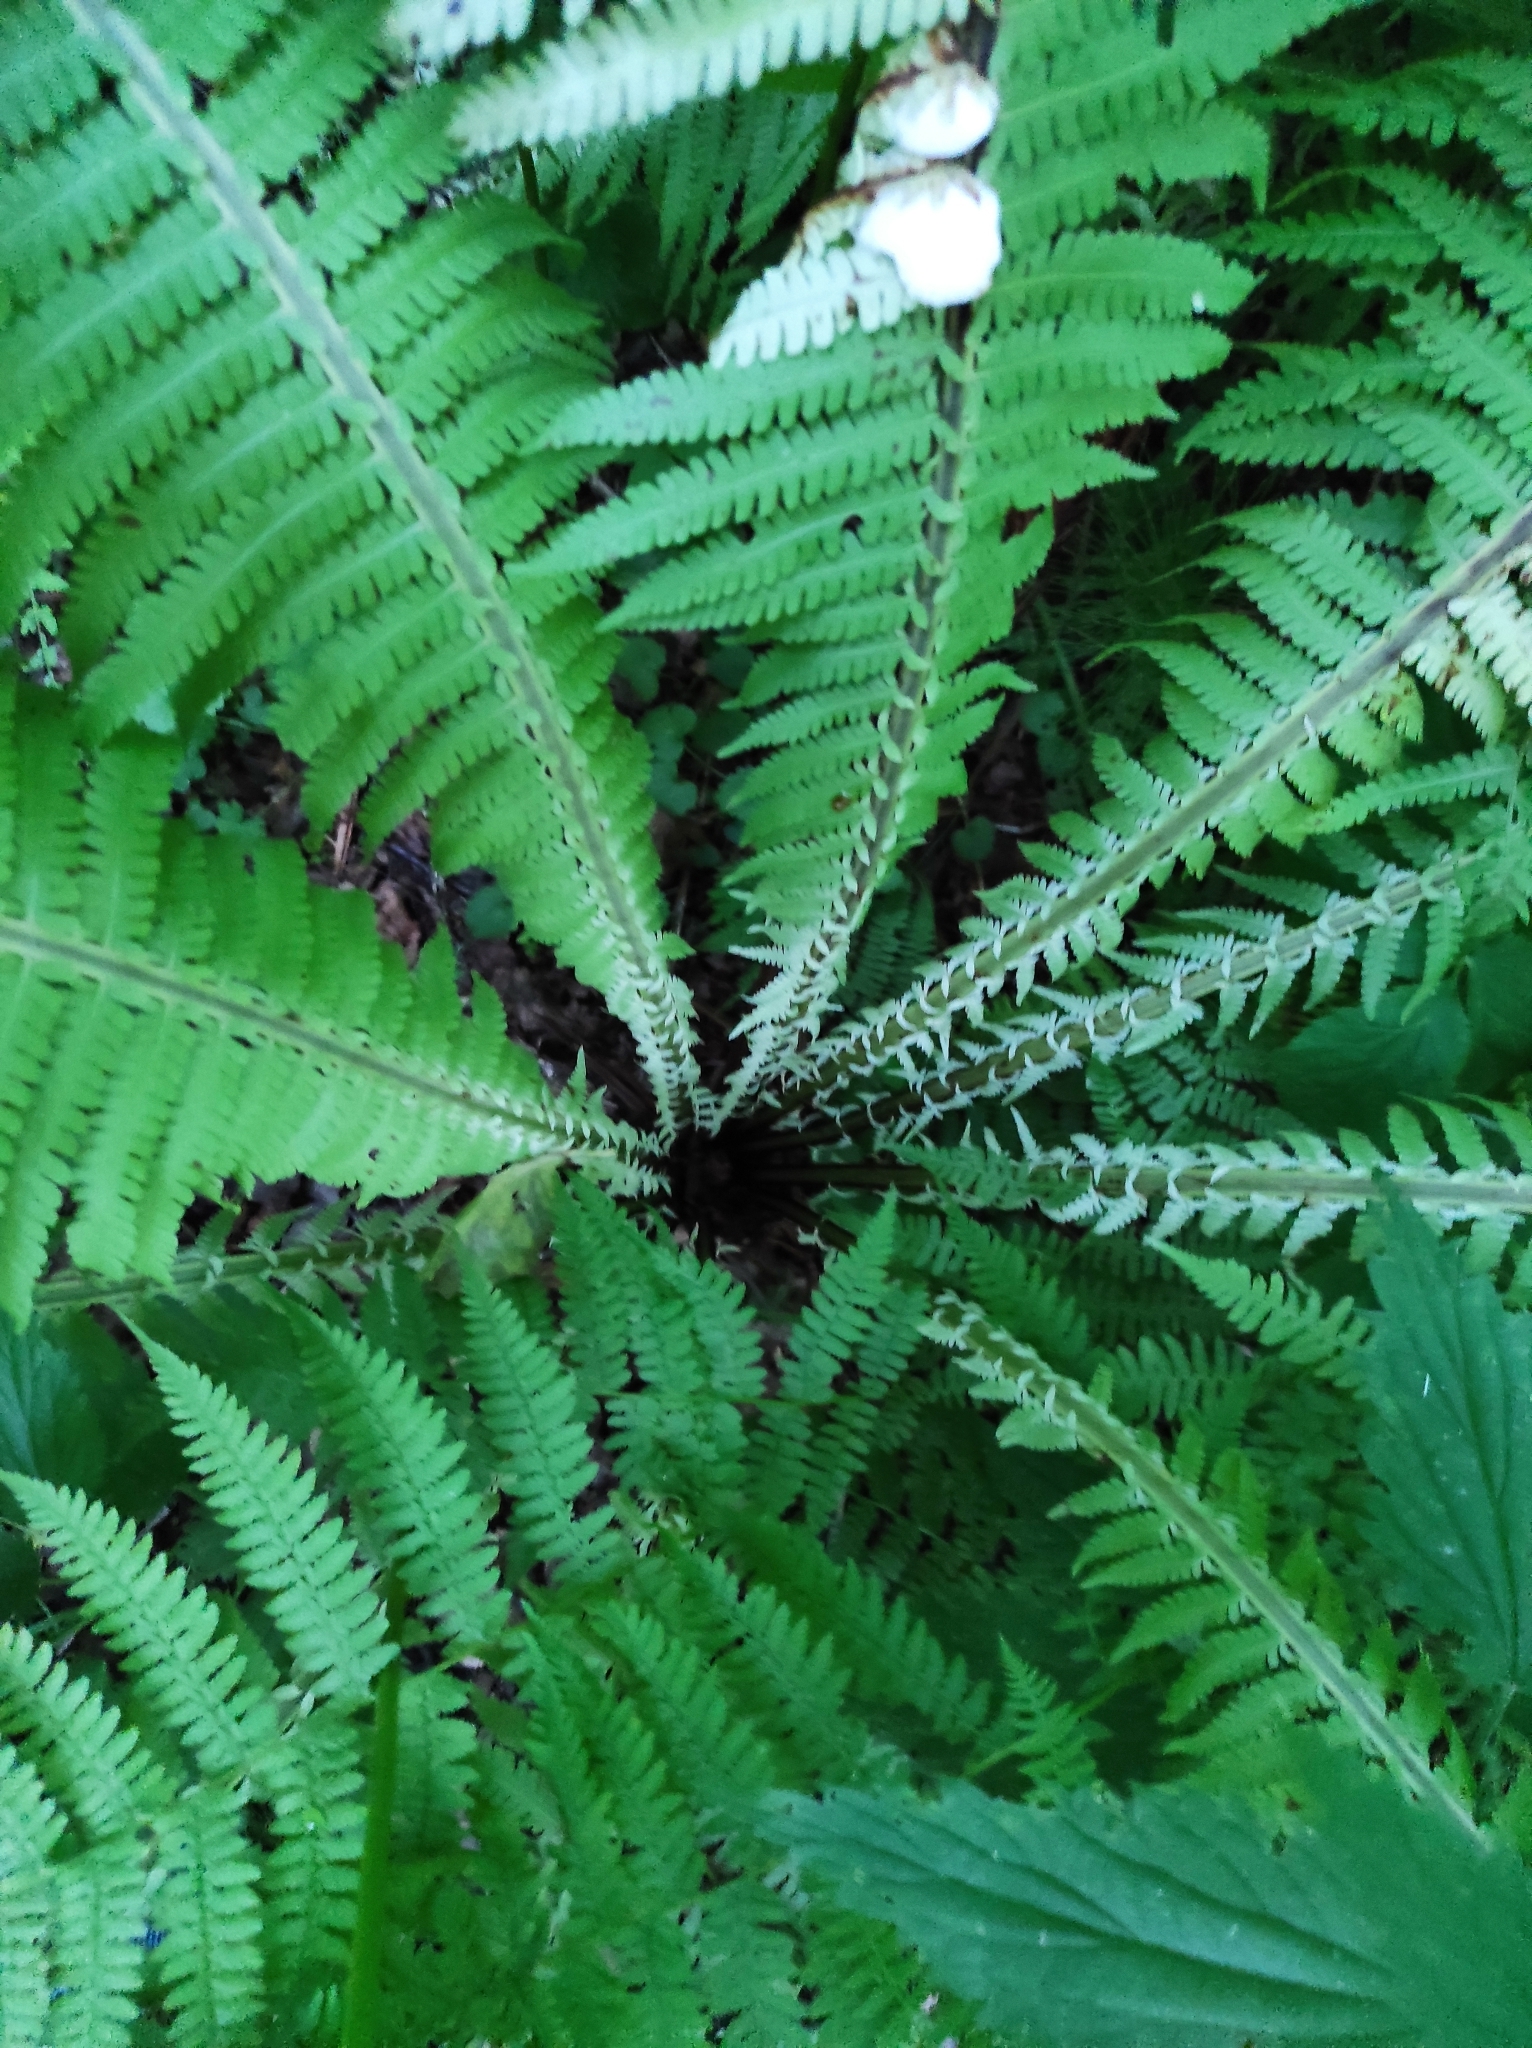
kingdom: Plantae
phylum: Tracheophyta
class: Polypodiopsida
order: Polypodiales
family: Onocleaceae
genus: Matteuccia
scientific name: Matteuccia struthiopteris
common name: Ostrich fern
